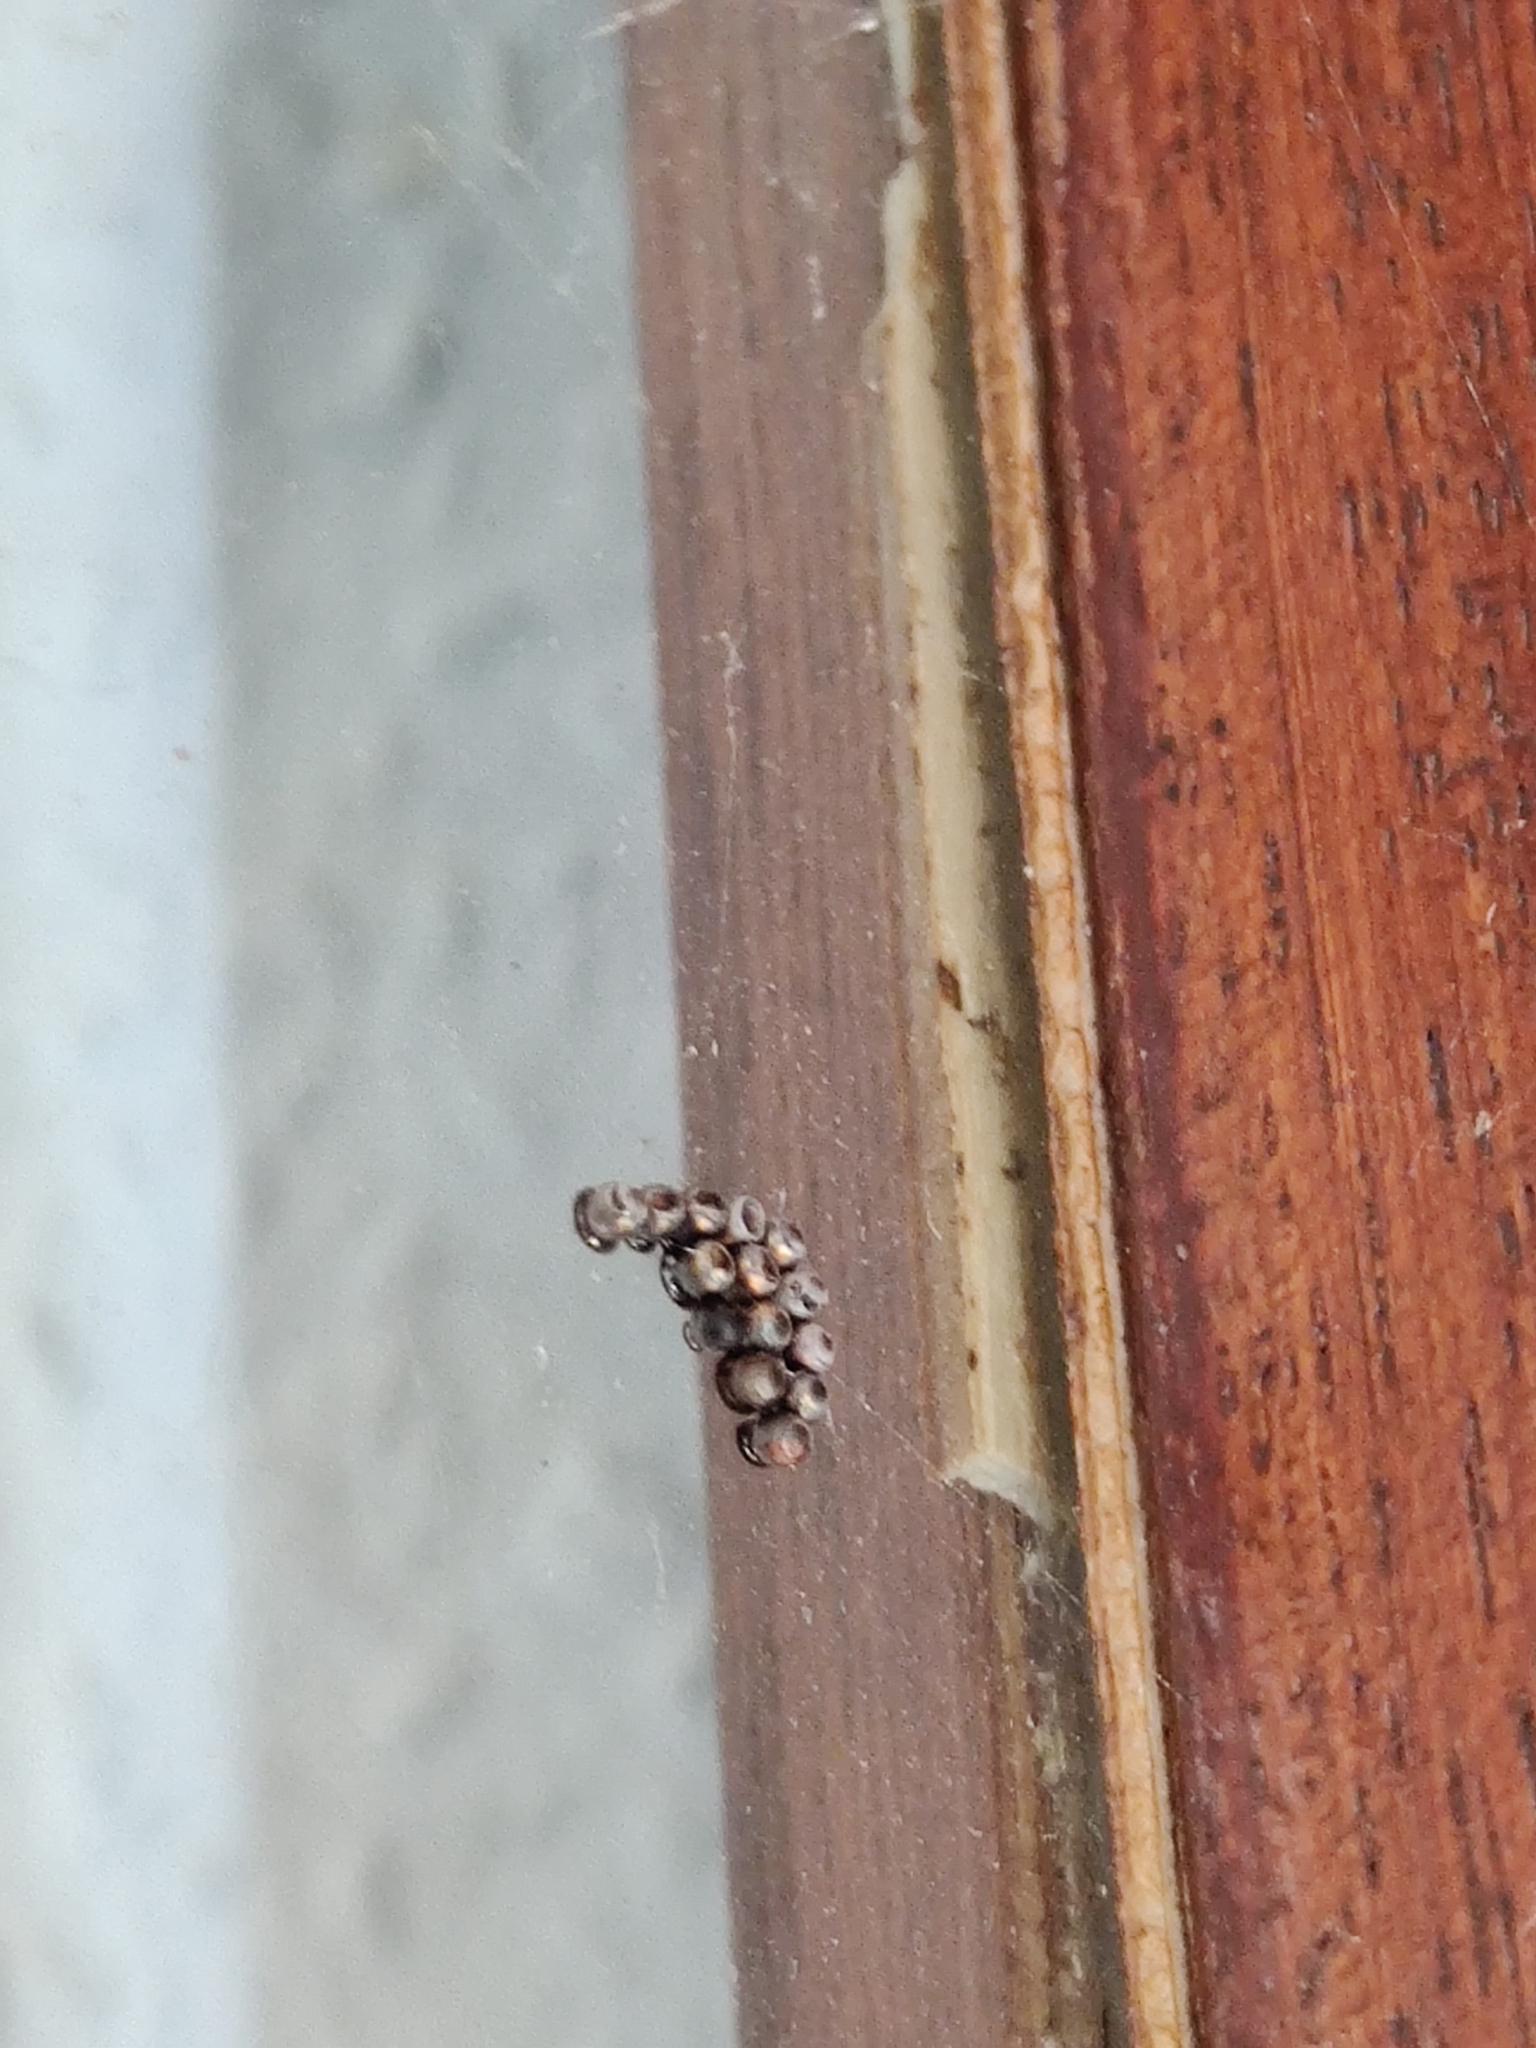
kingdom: Animalia
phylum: Arthropoda
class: Insecta
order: Hemiptera
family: Pentatomidae
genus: Rhaphigaster
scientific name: Rhaphigaster nebulosa
